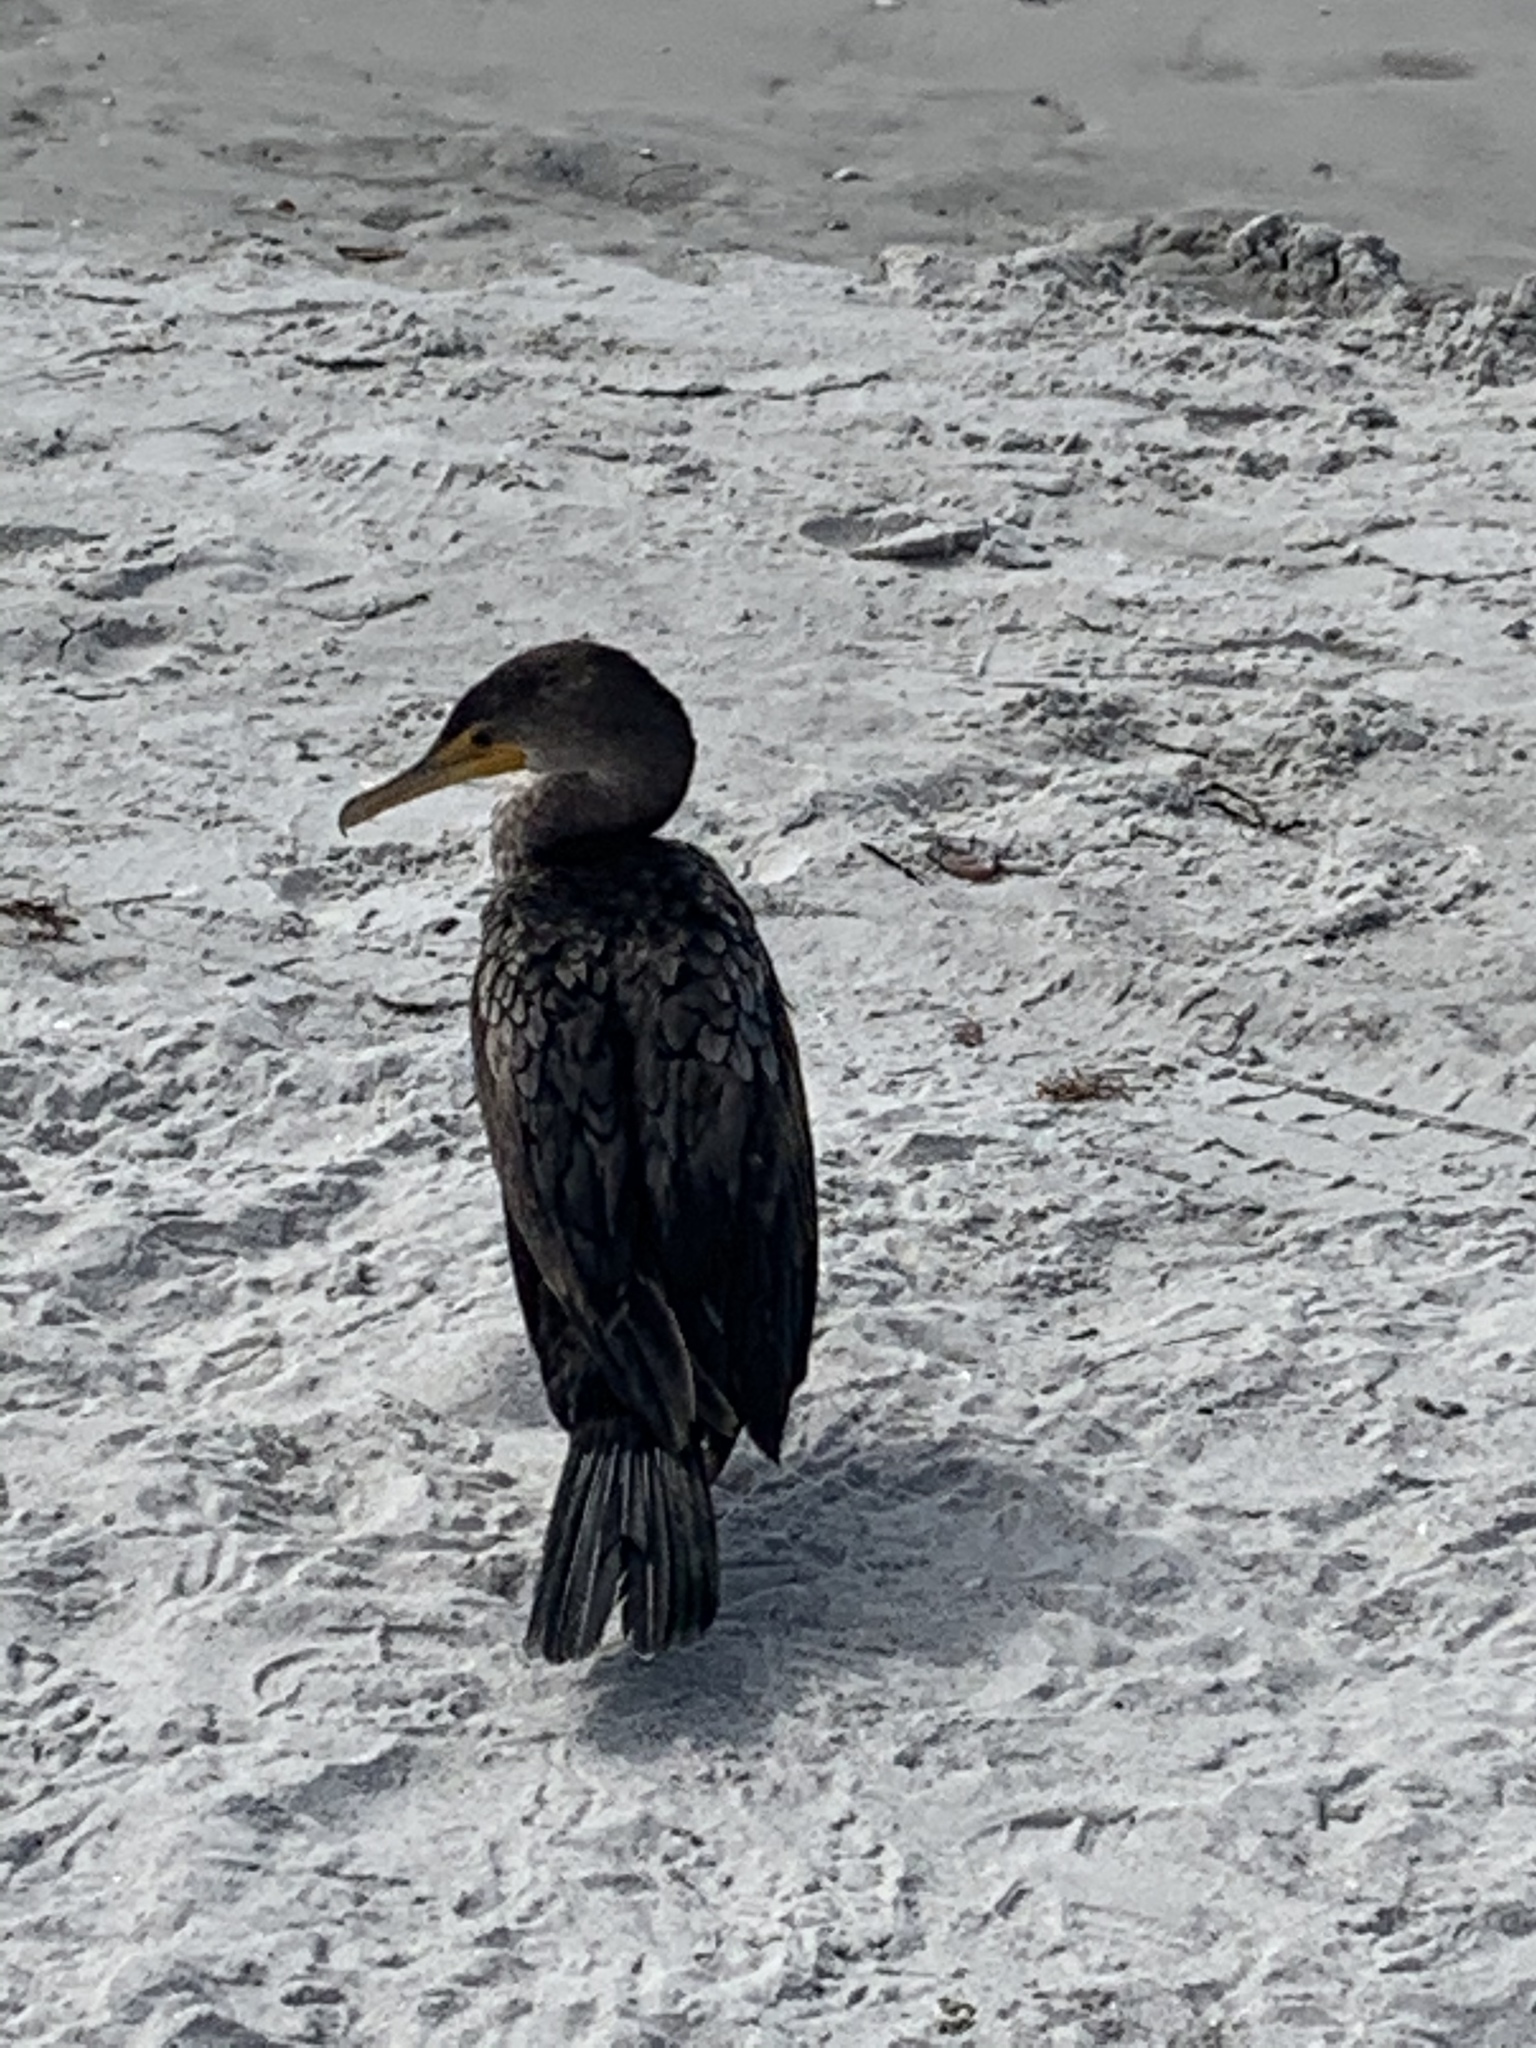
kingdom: Animalia
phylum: Chordata
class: Aves
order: Suliformes
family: Phalacrocoracidae
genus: Phalacrocorax
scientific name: Phalacrocorax auritus
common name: Double-crested cormorant
